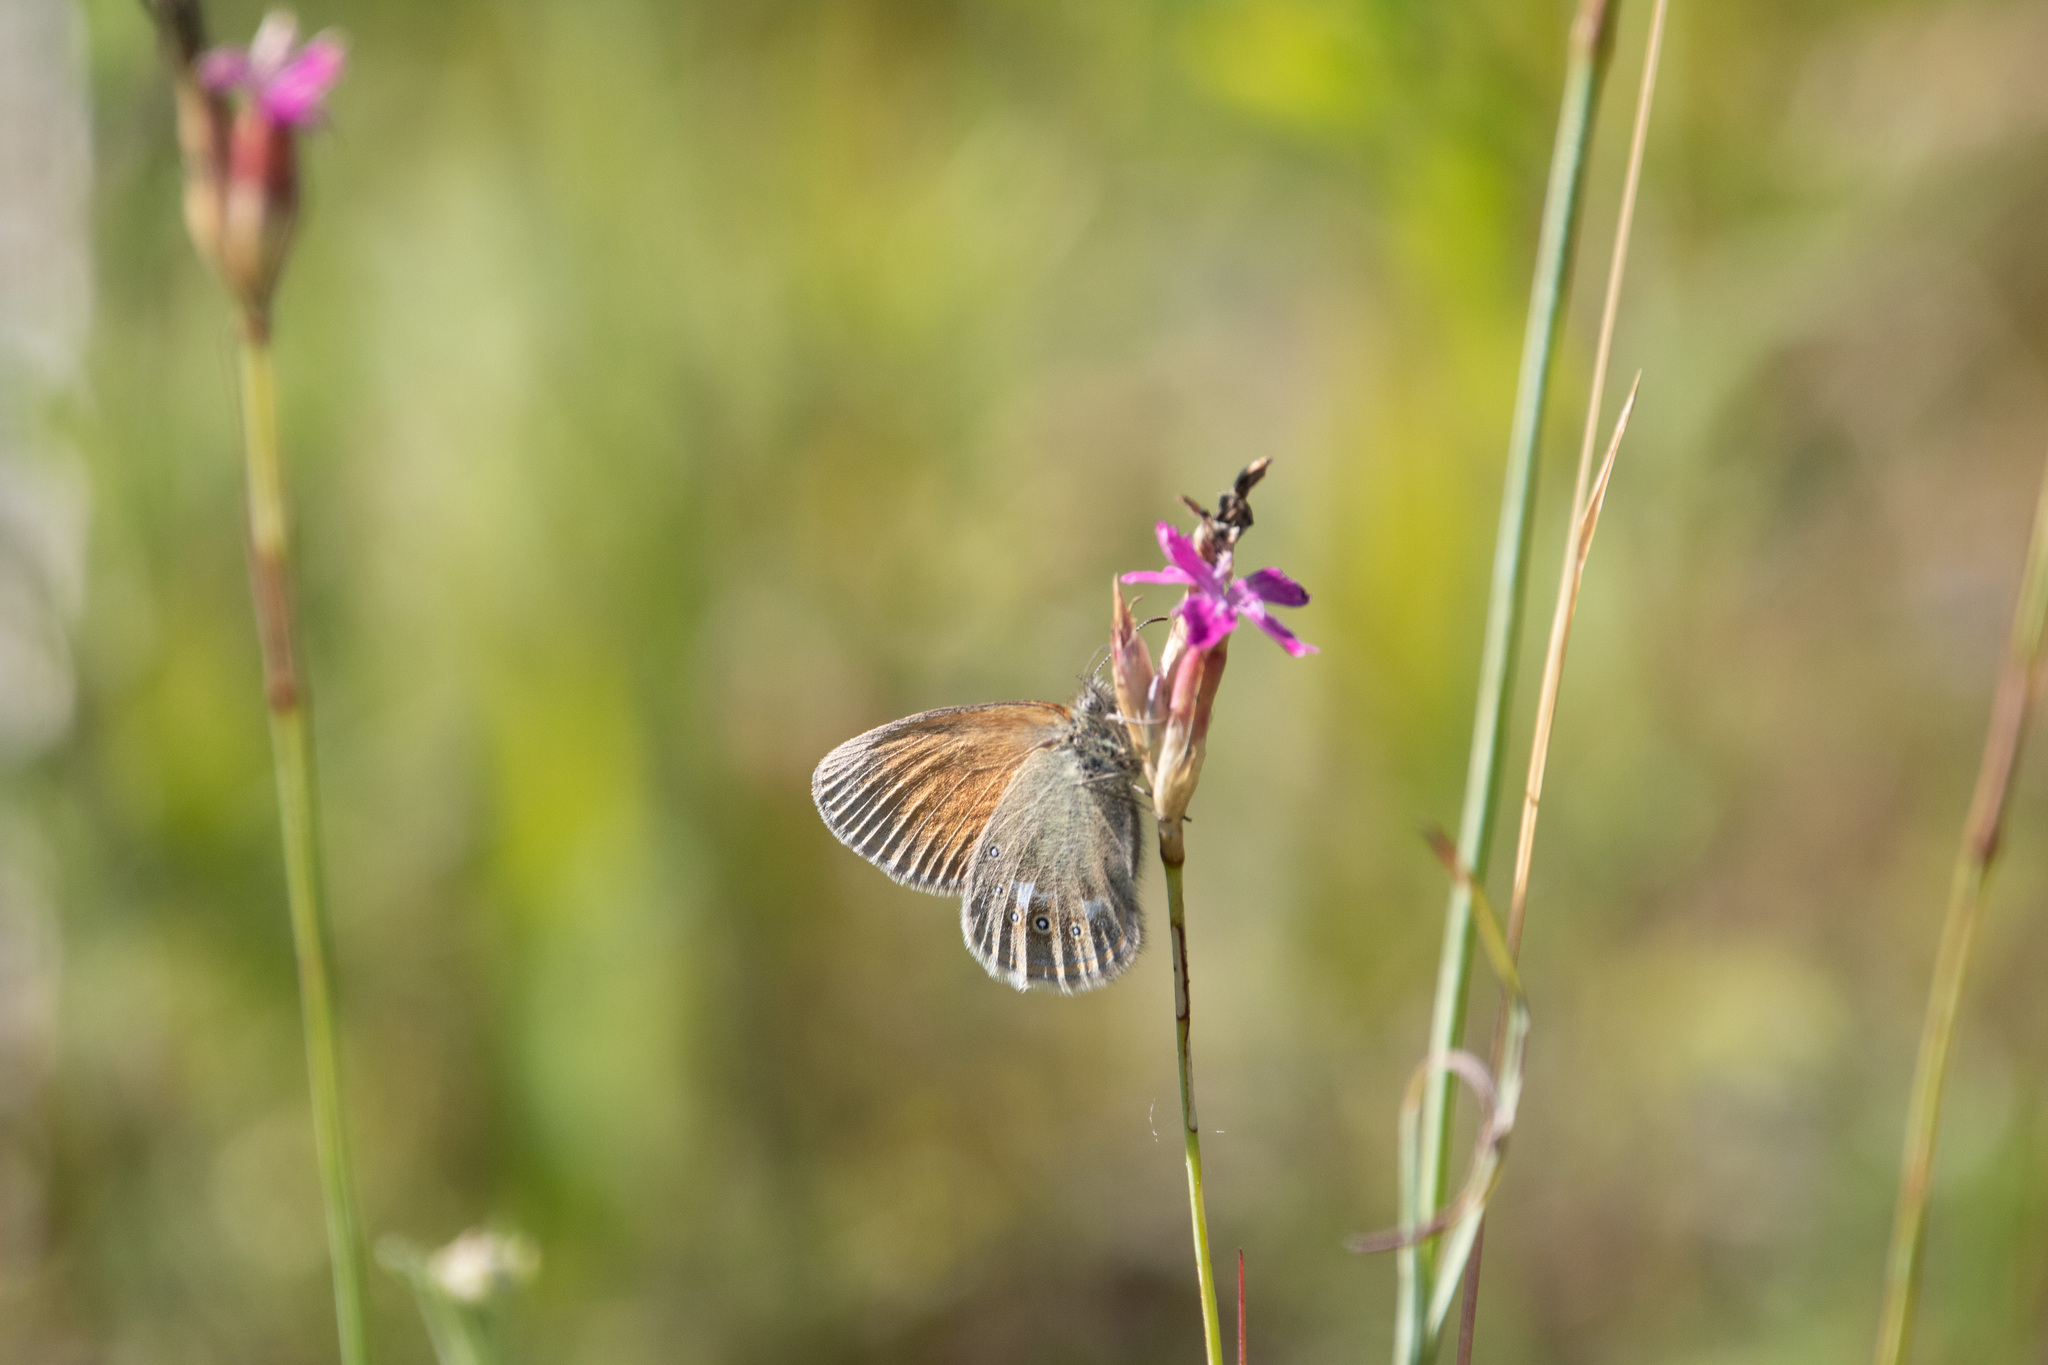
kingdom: Animalia
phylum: Arthropoda
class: Insecta
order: Lepidoptera
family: Nymphalidae
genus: Coenonympha
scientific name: Coenonympha iphis
